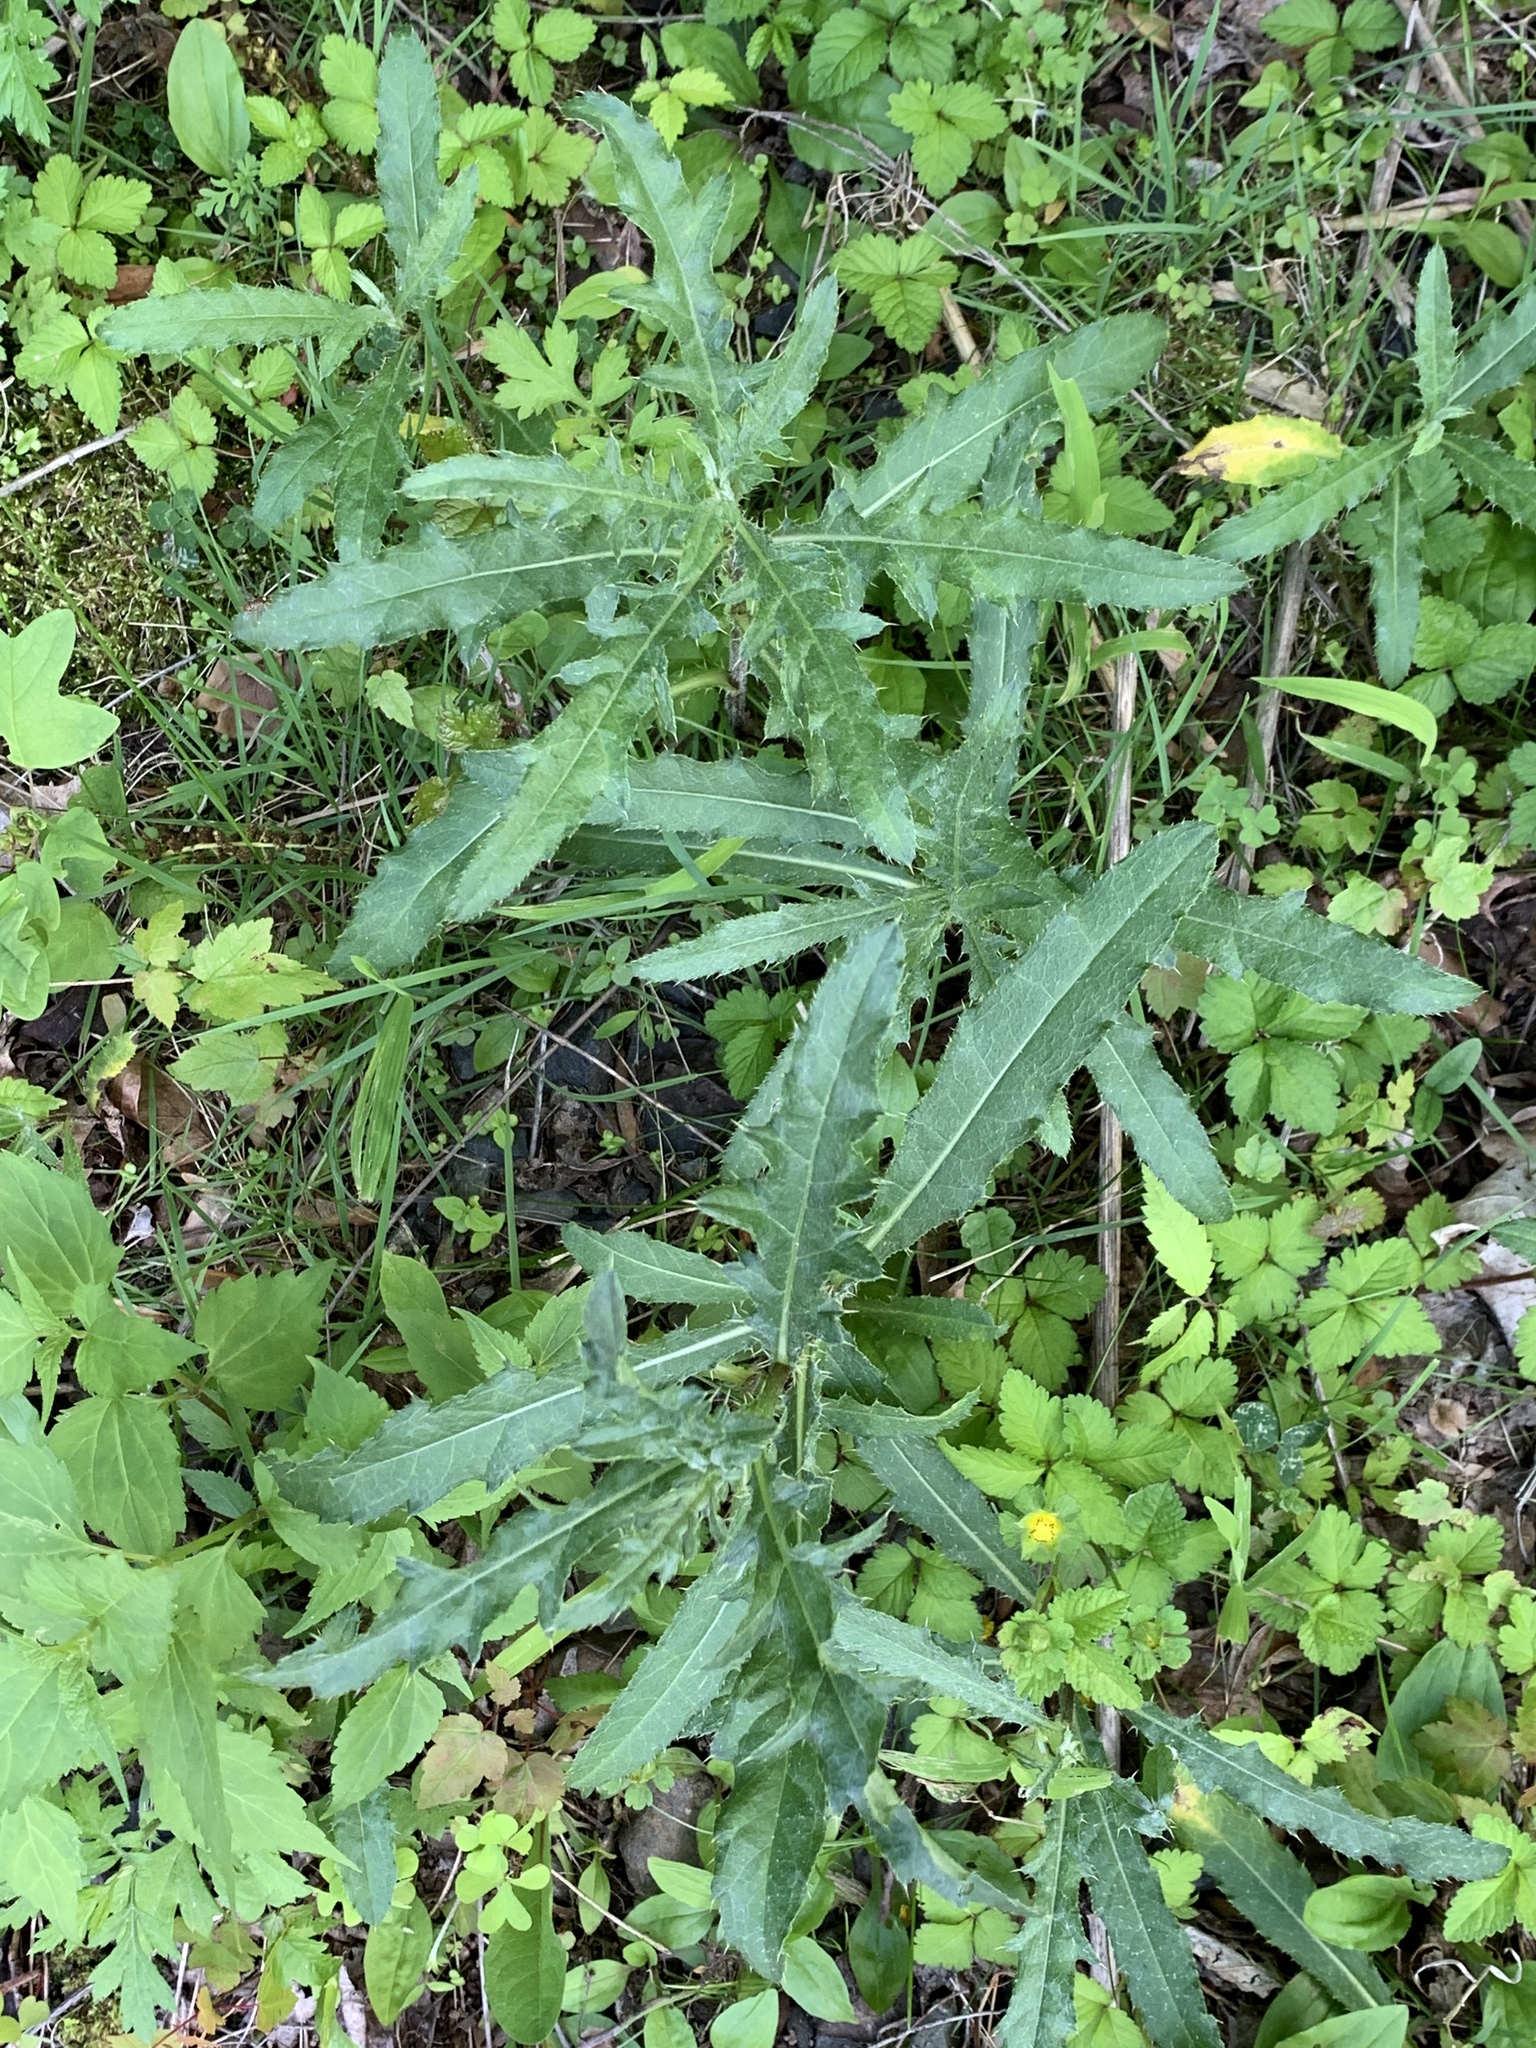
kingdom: Plantae
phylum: Tracheophyta
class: Magnoliopsida
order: Asterales
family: Asteraceae
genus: Cirsium
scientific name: Cirsium arvense
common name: Creeping thistle
